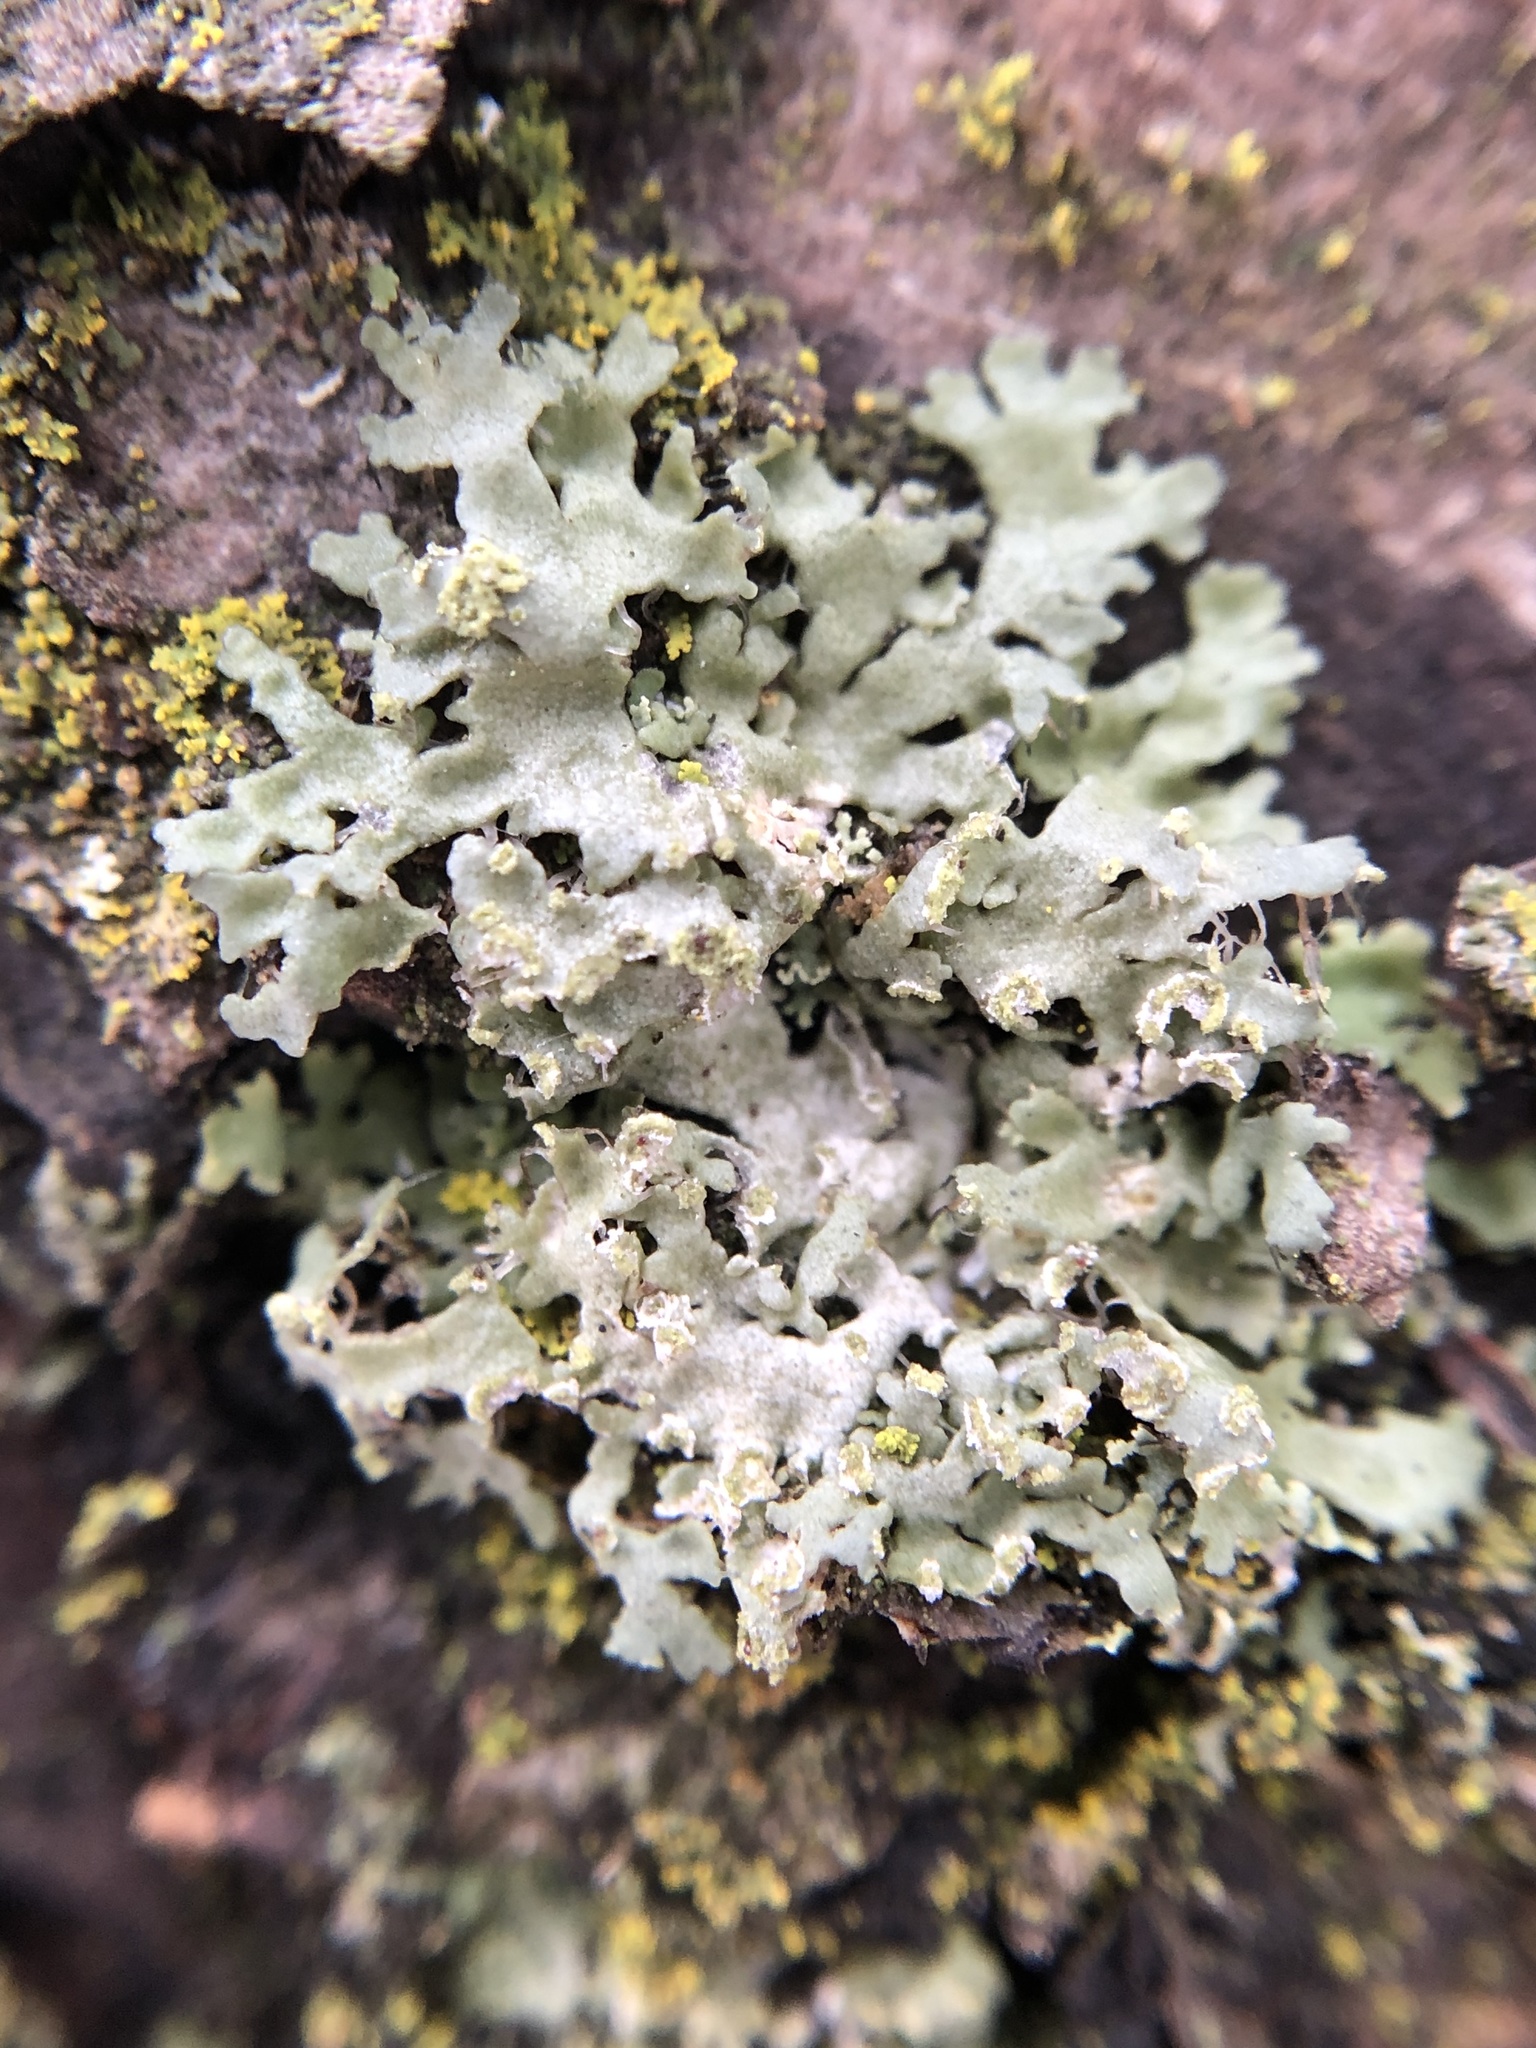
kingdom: Fungi
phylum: Ascomycota
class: Lecanoromycetes
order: Caliciales
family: Physciaceae
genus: Physciella
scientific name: Physciella melanchra
